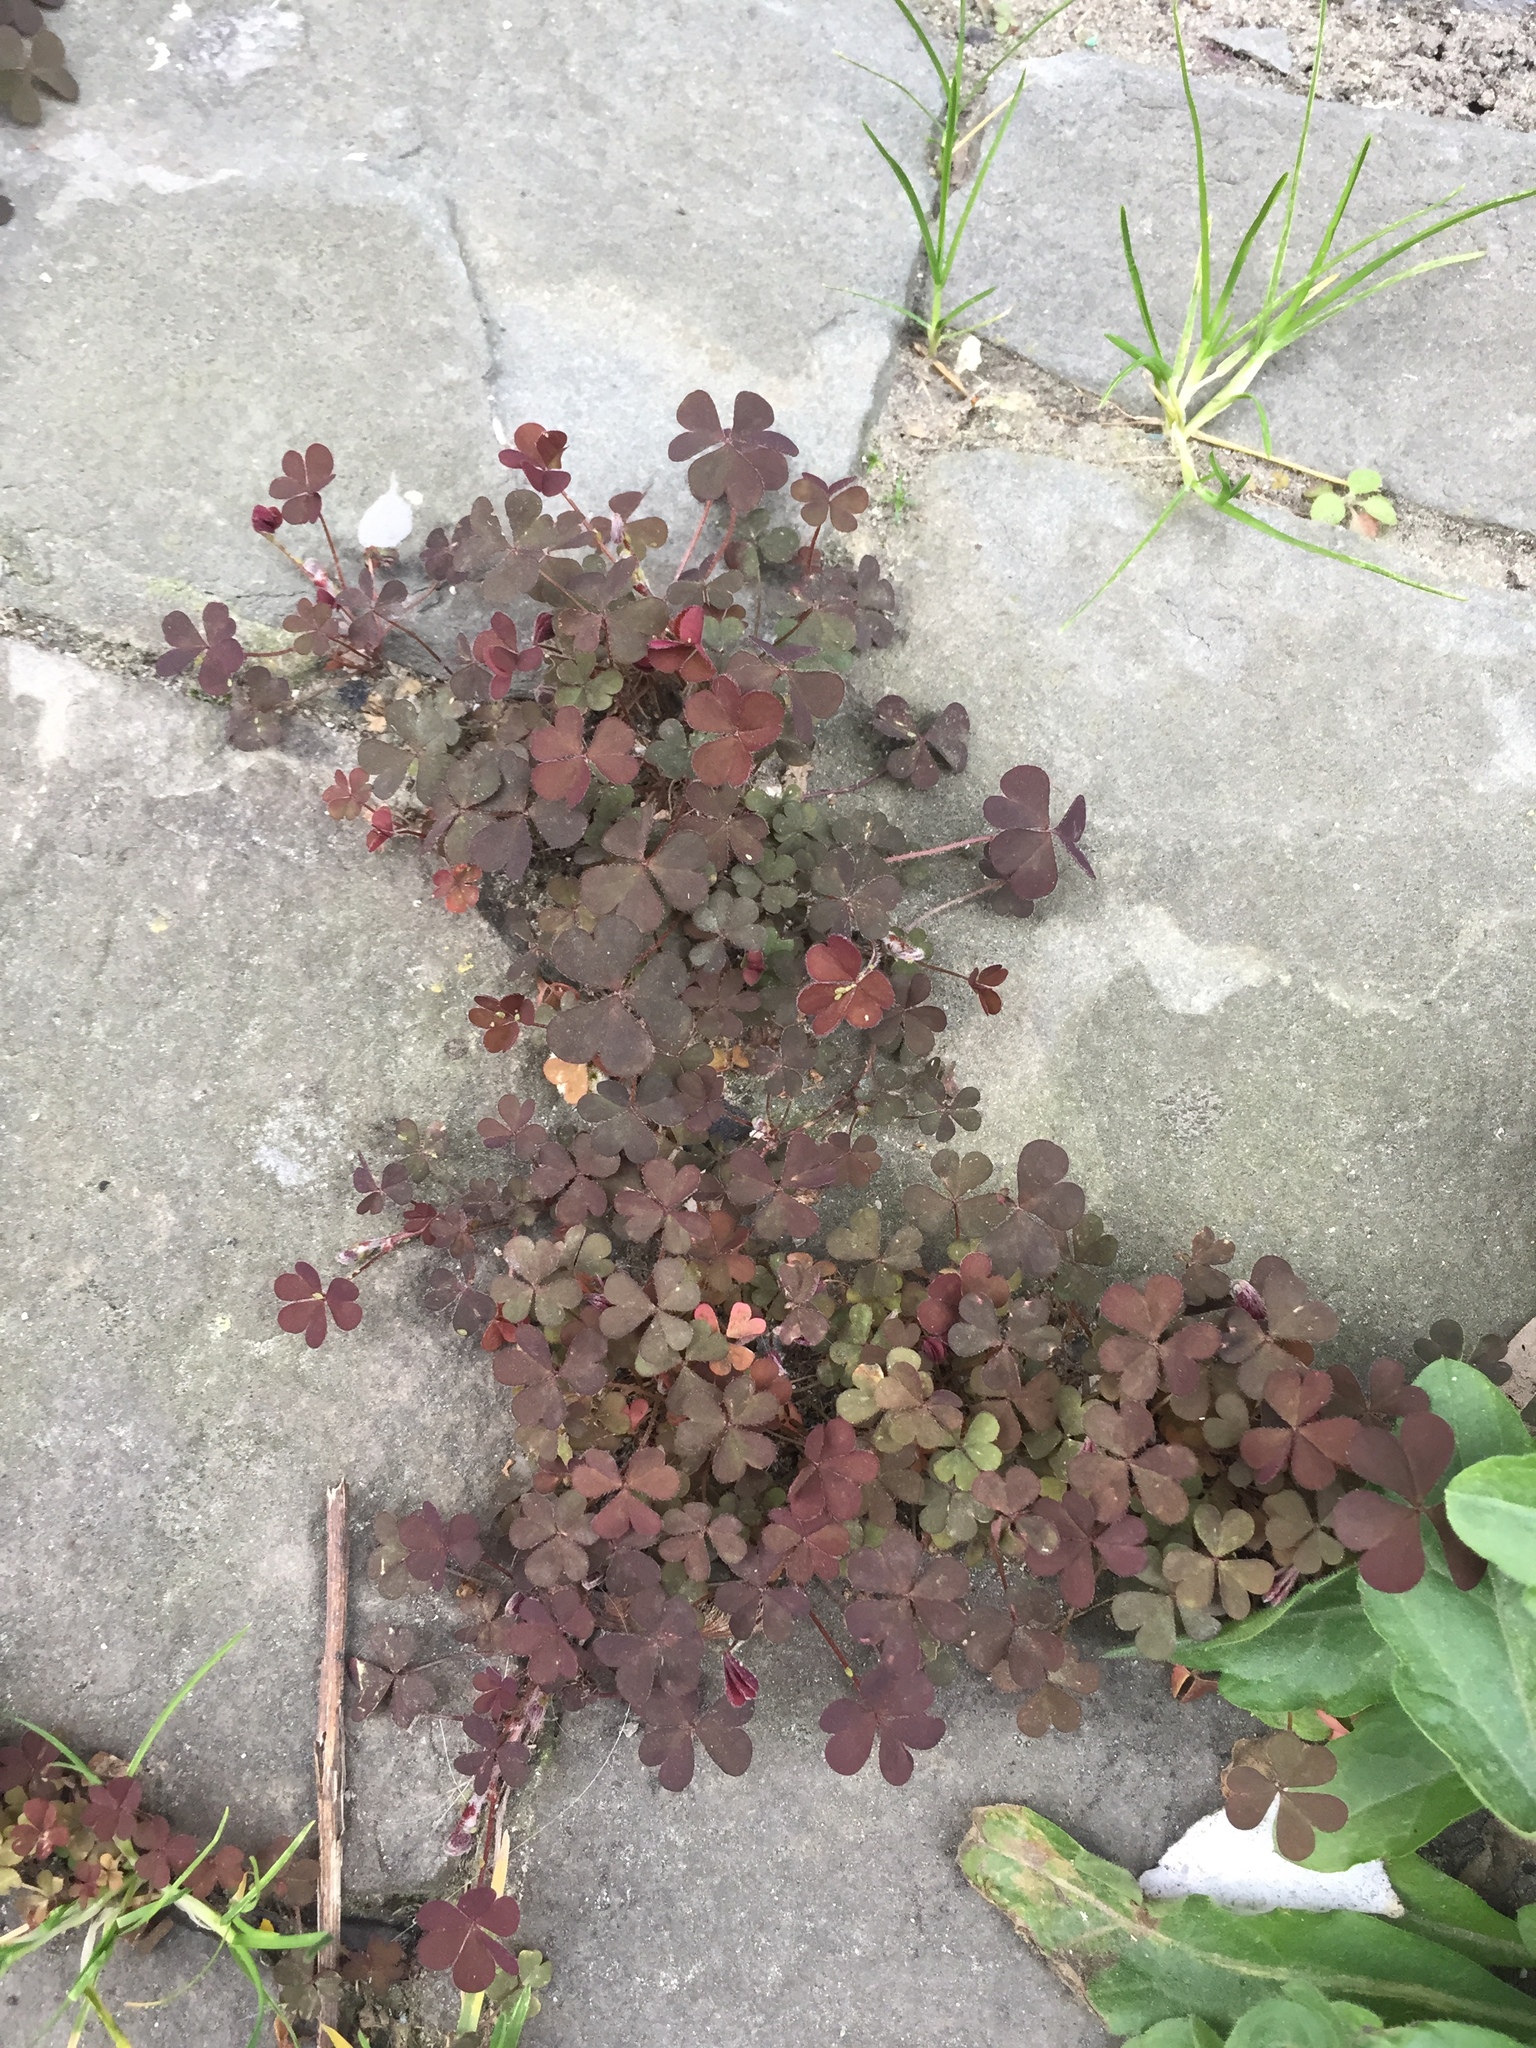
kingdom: Plantae
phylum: Tracheophyta
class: Magnoliopsida
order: Oxalidales
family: Oxalidaceae
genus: Oxalis
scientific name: Oxalis corniculata
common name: Procumbent yellow-sorrel
